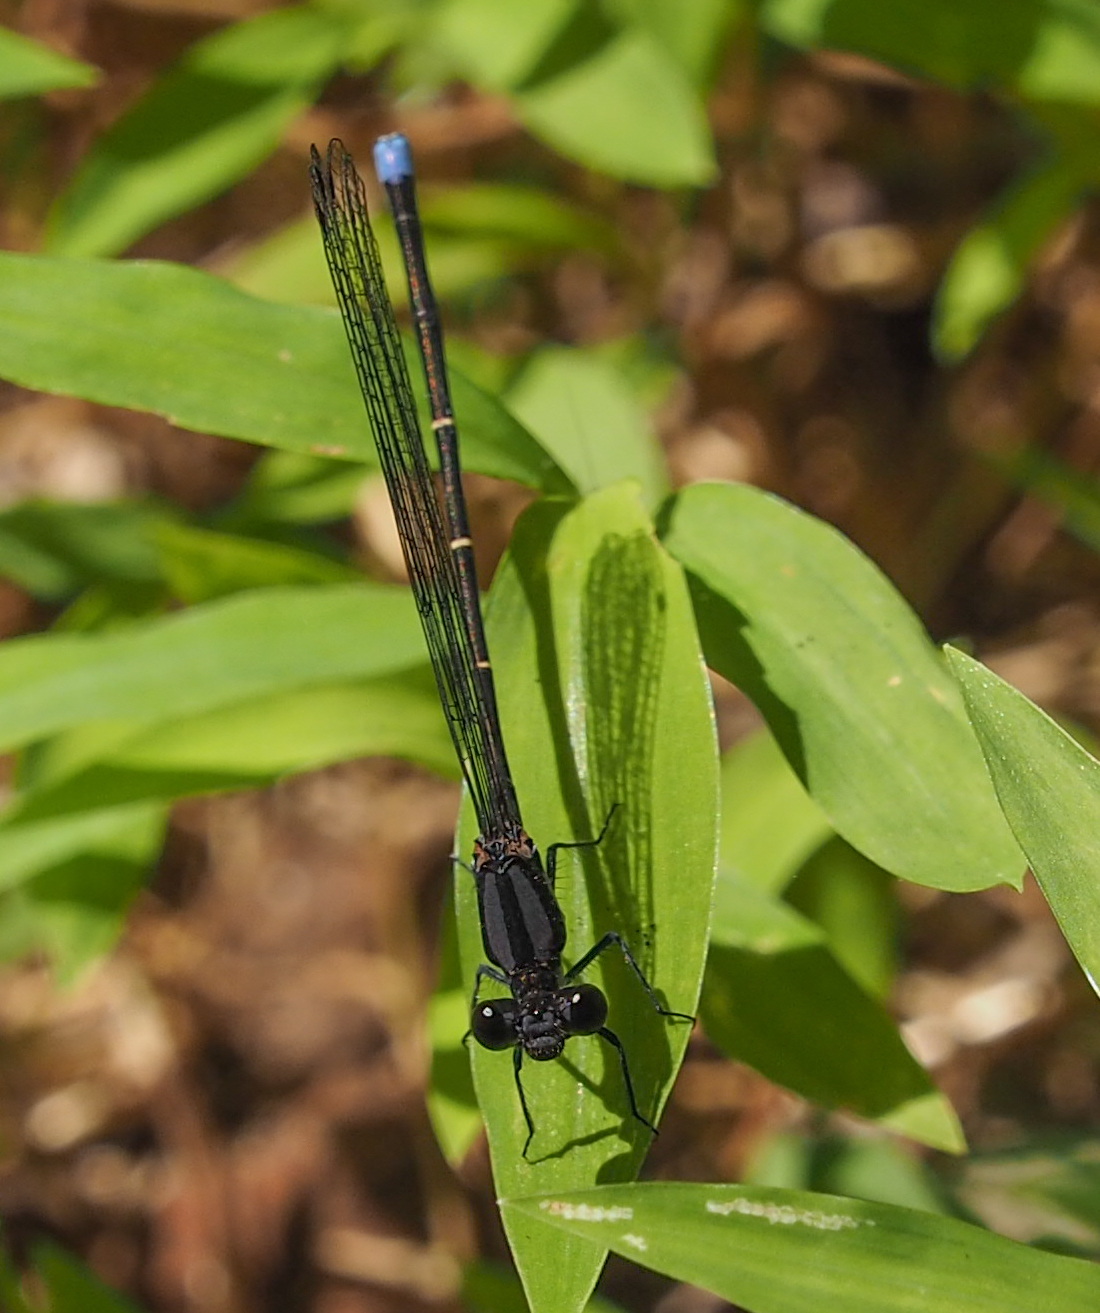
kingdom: Animalia
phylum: Arthropoda
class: Insecta
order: Odonata
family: Coenagrionidae
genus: Argia
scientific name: Argia tibialis
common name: Blue-tipped dancer
